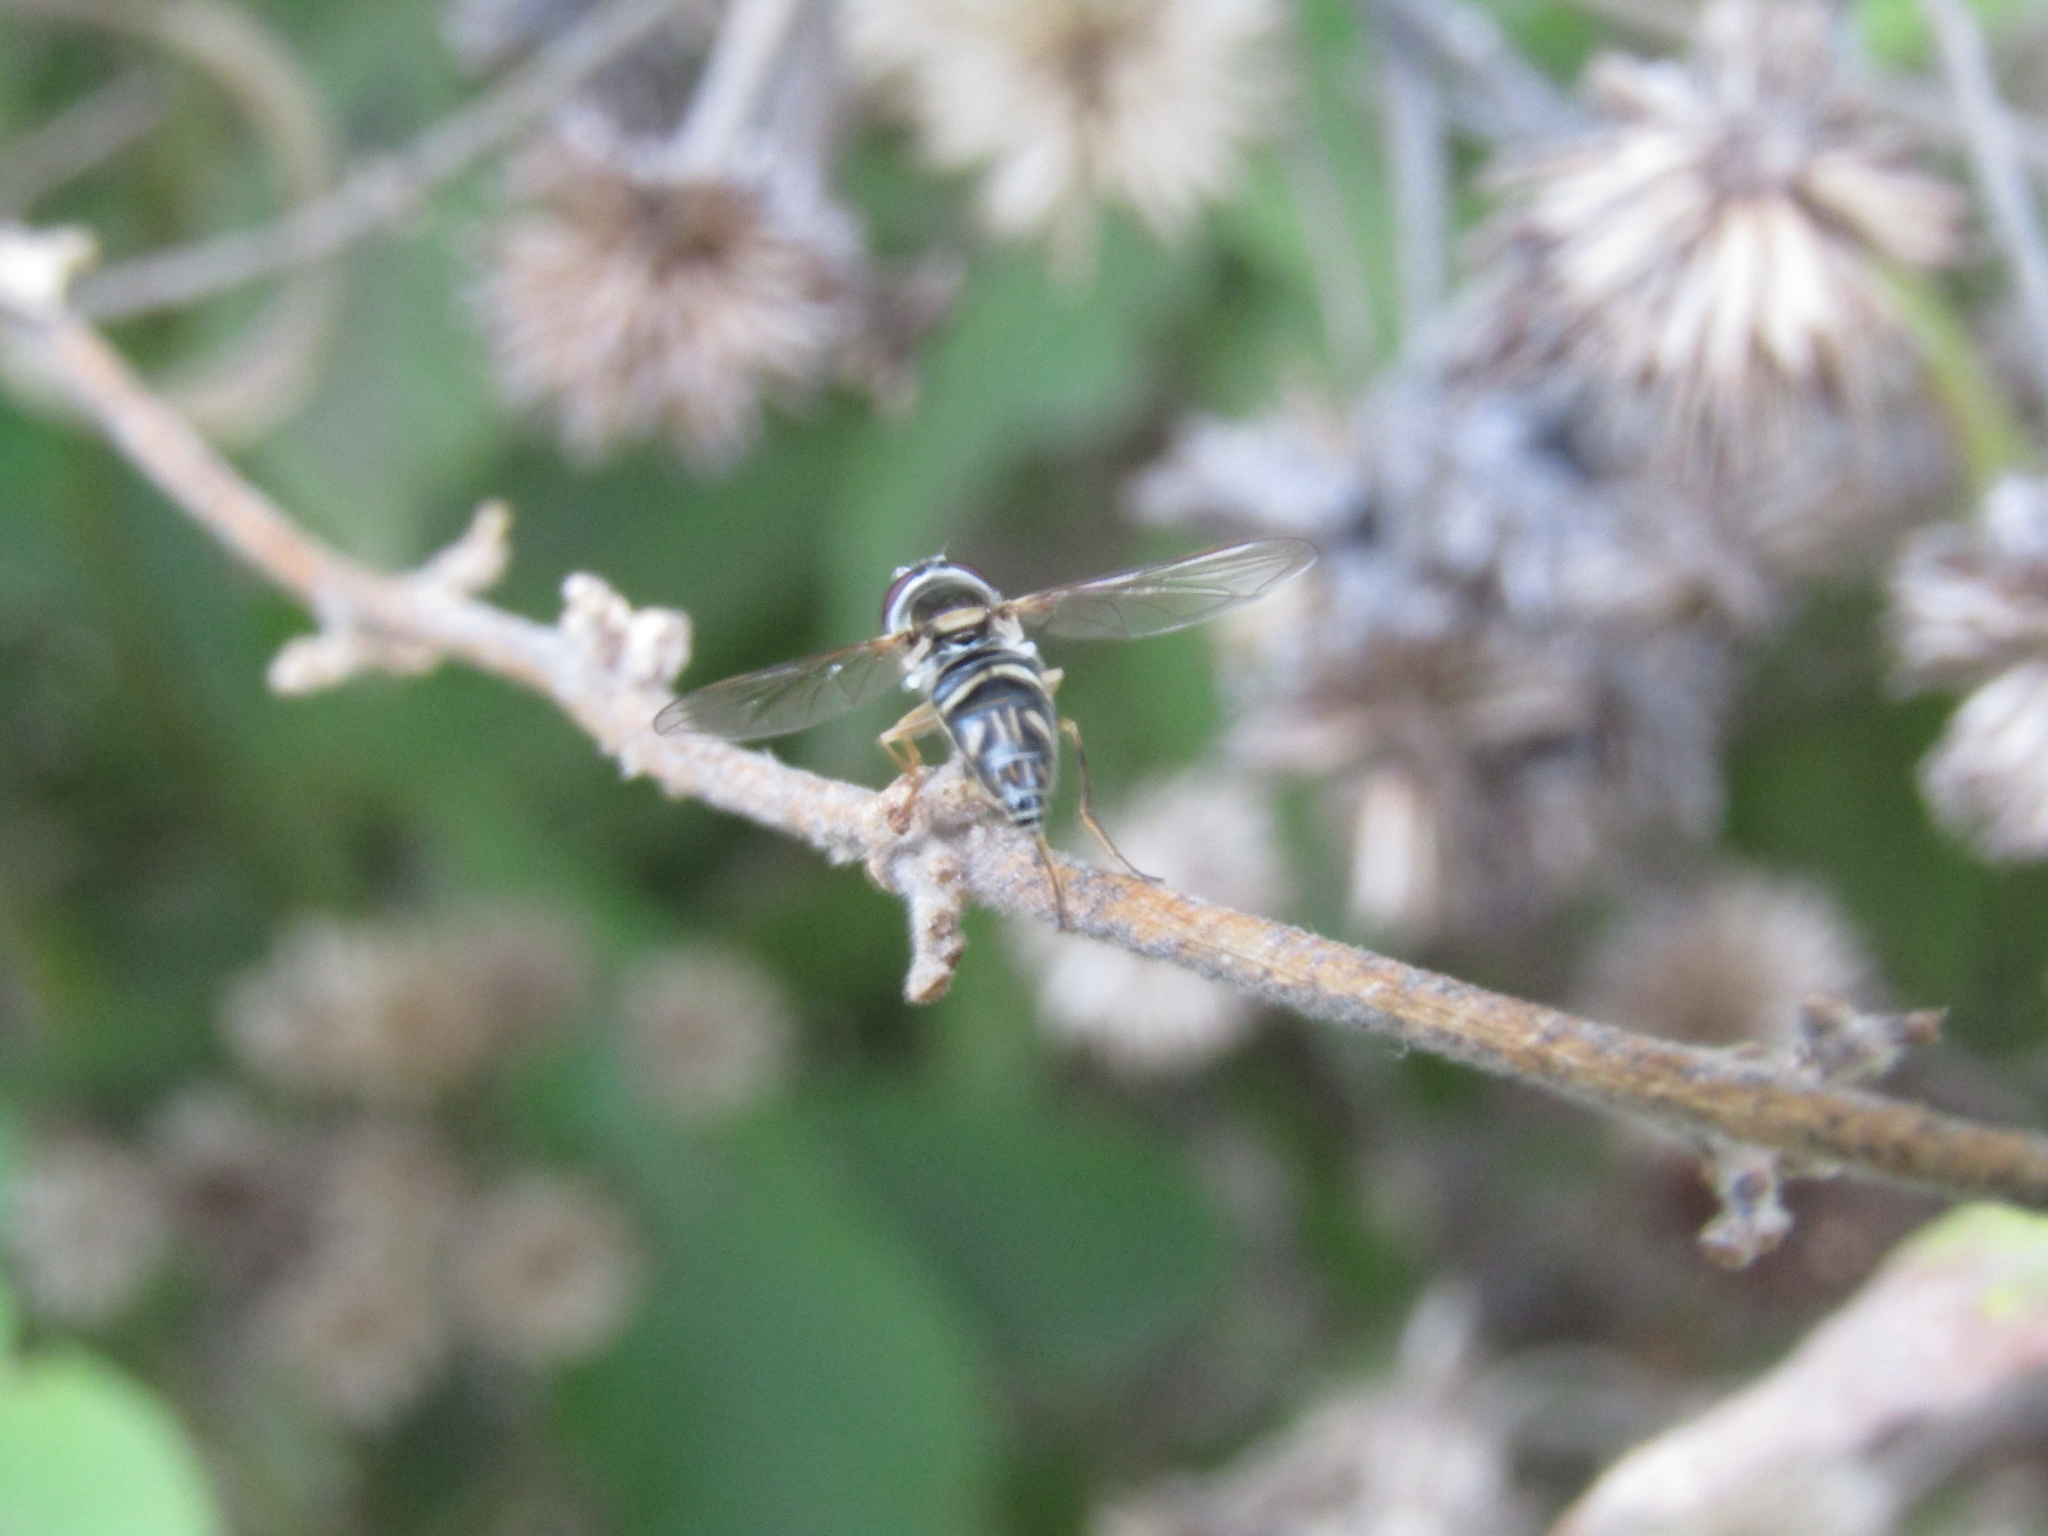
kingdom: Animalia
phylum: Arthropoda
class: Insecta
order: Diptera
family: Syrphidae
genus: Allograpta
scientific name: Allograpta exotica
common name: Syrphid fly
